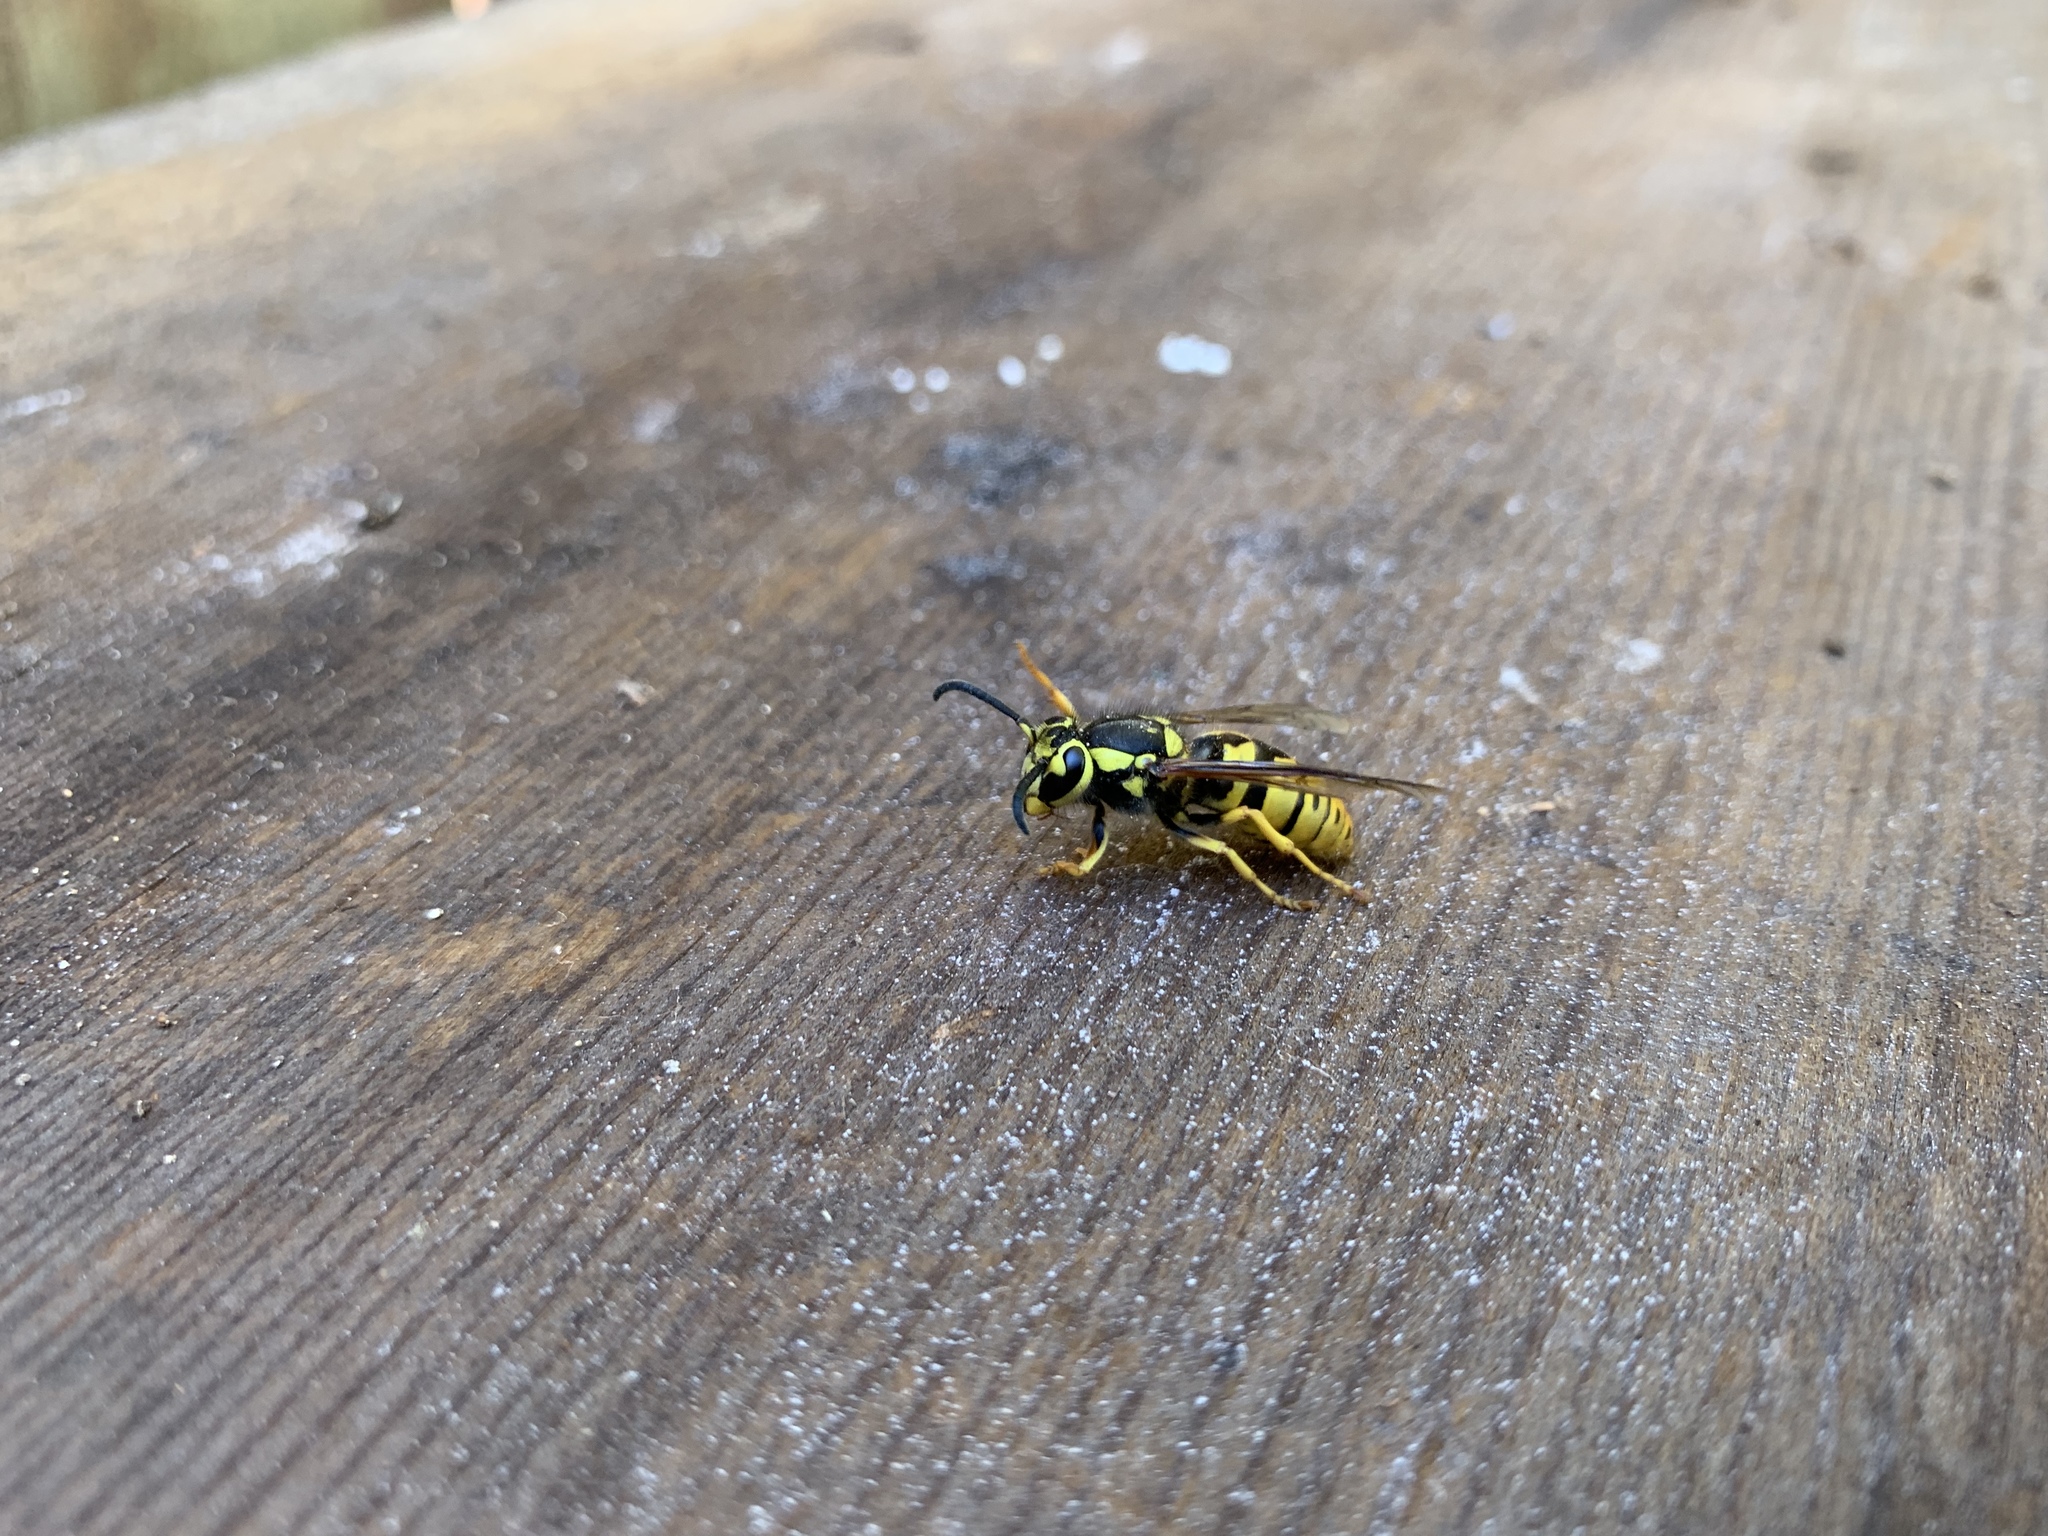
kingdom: Animalia
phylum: Arthropoda
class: Insecta
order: Hymenoptera
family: Vespidae
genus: Vespula
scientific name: Vespula pensylvanica
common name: Western yellowjacket
